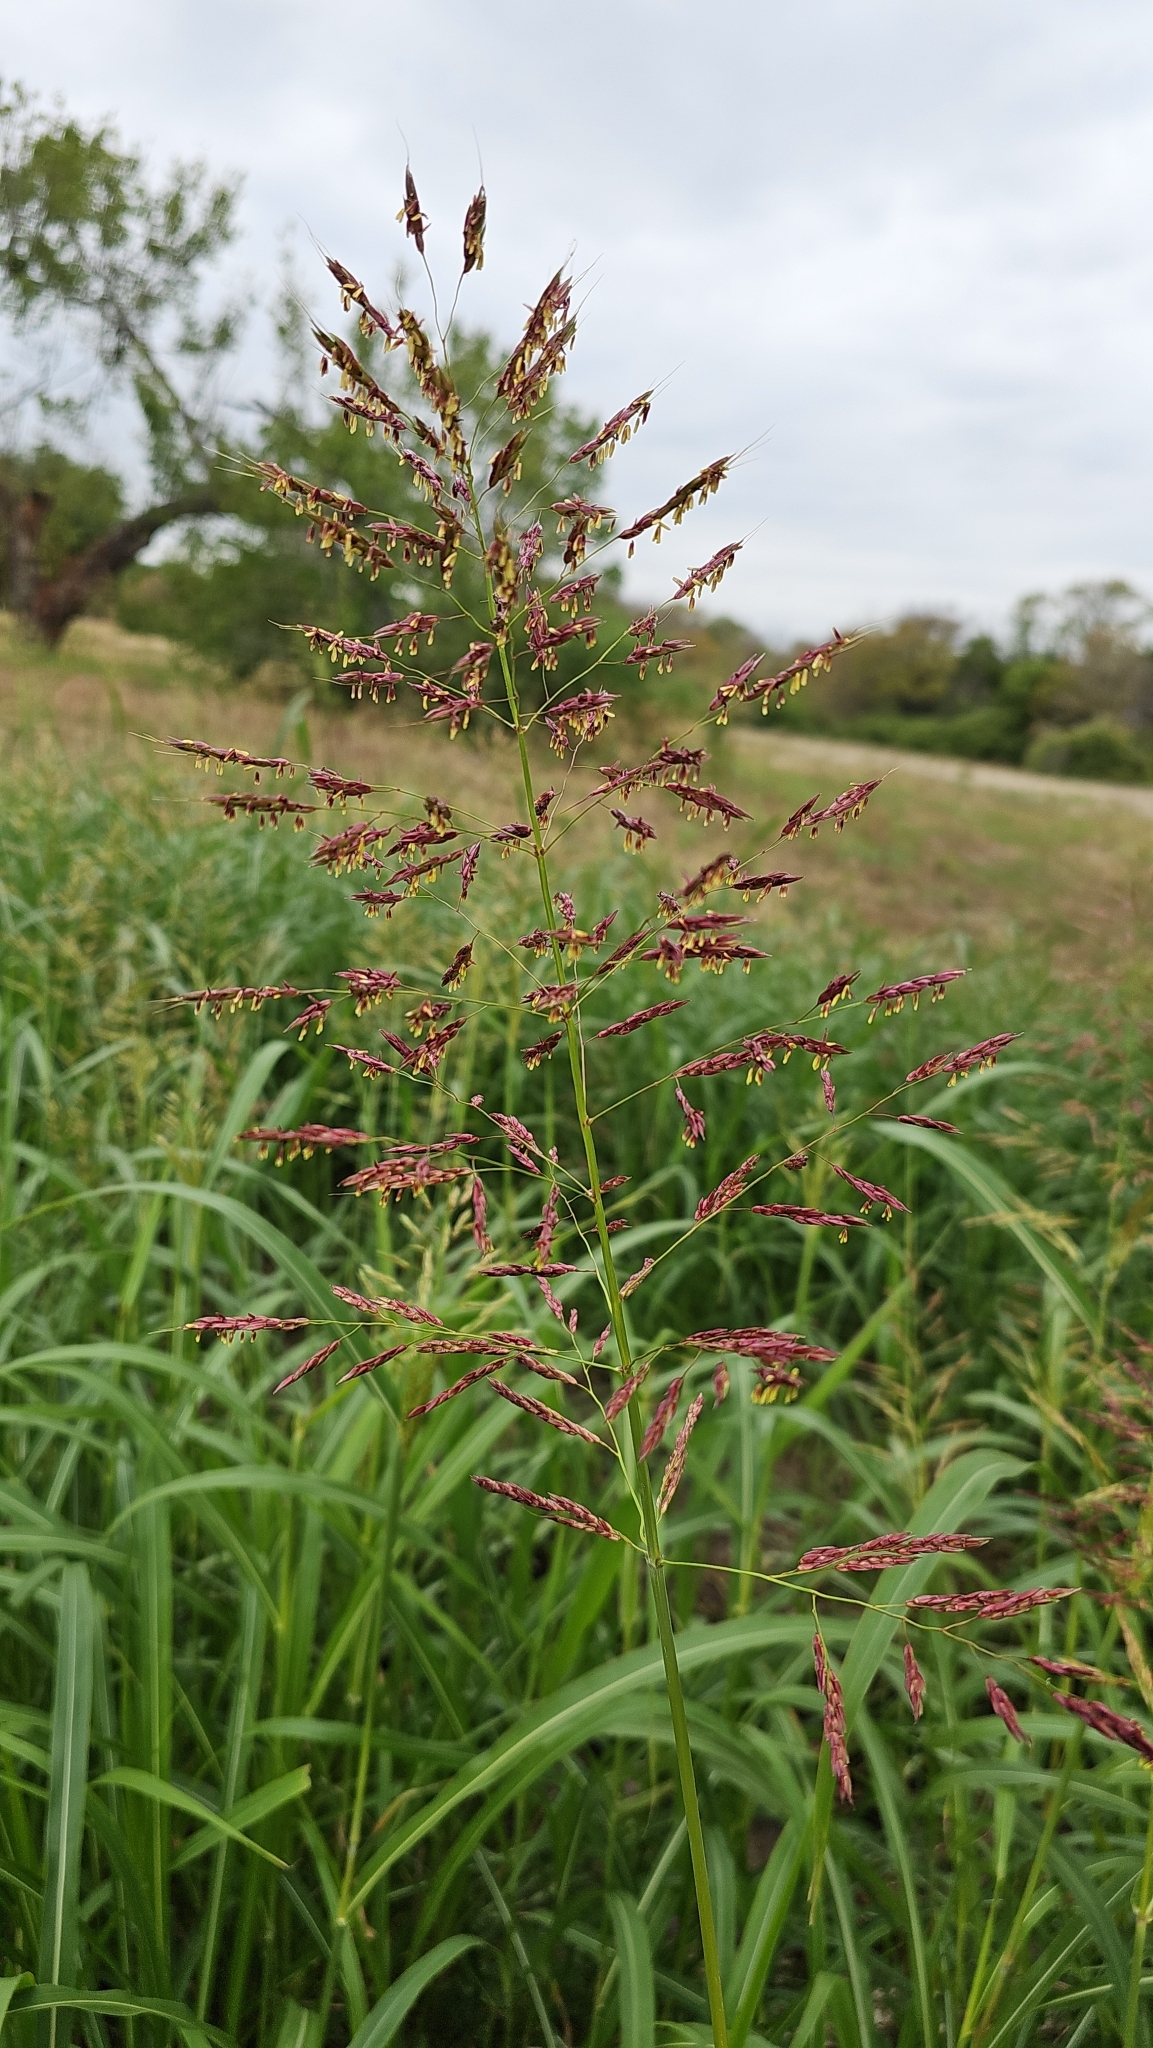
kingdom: Plantae
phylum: Tracheophyta
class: Liliopsida
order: Poales
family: Poaceae
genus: Sorghum
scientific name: Sorghum halepense
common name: Johnson-grass
